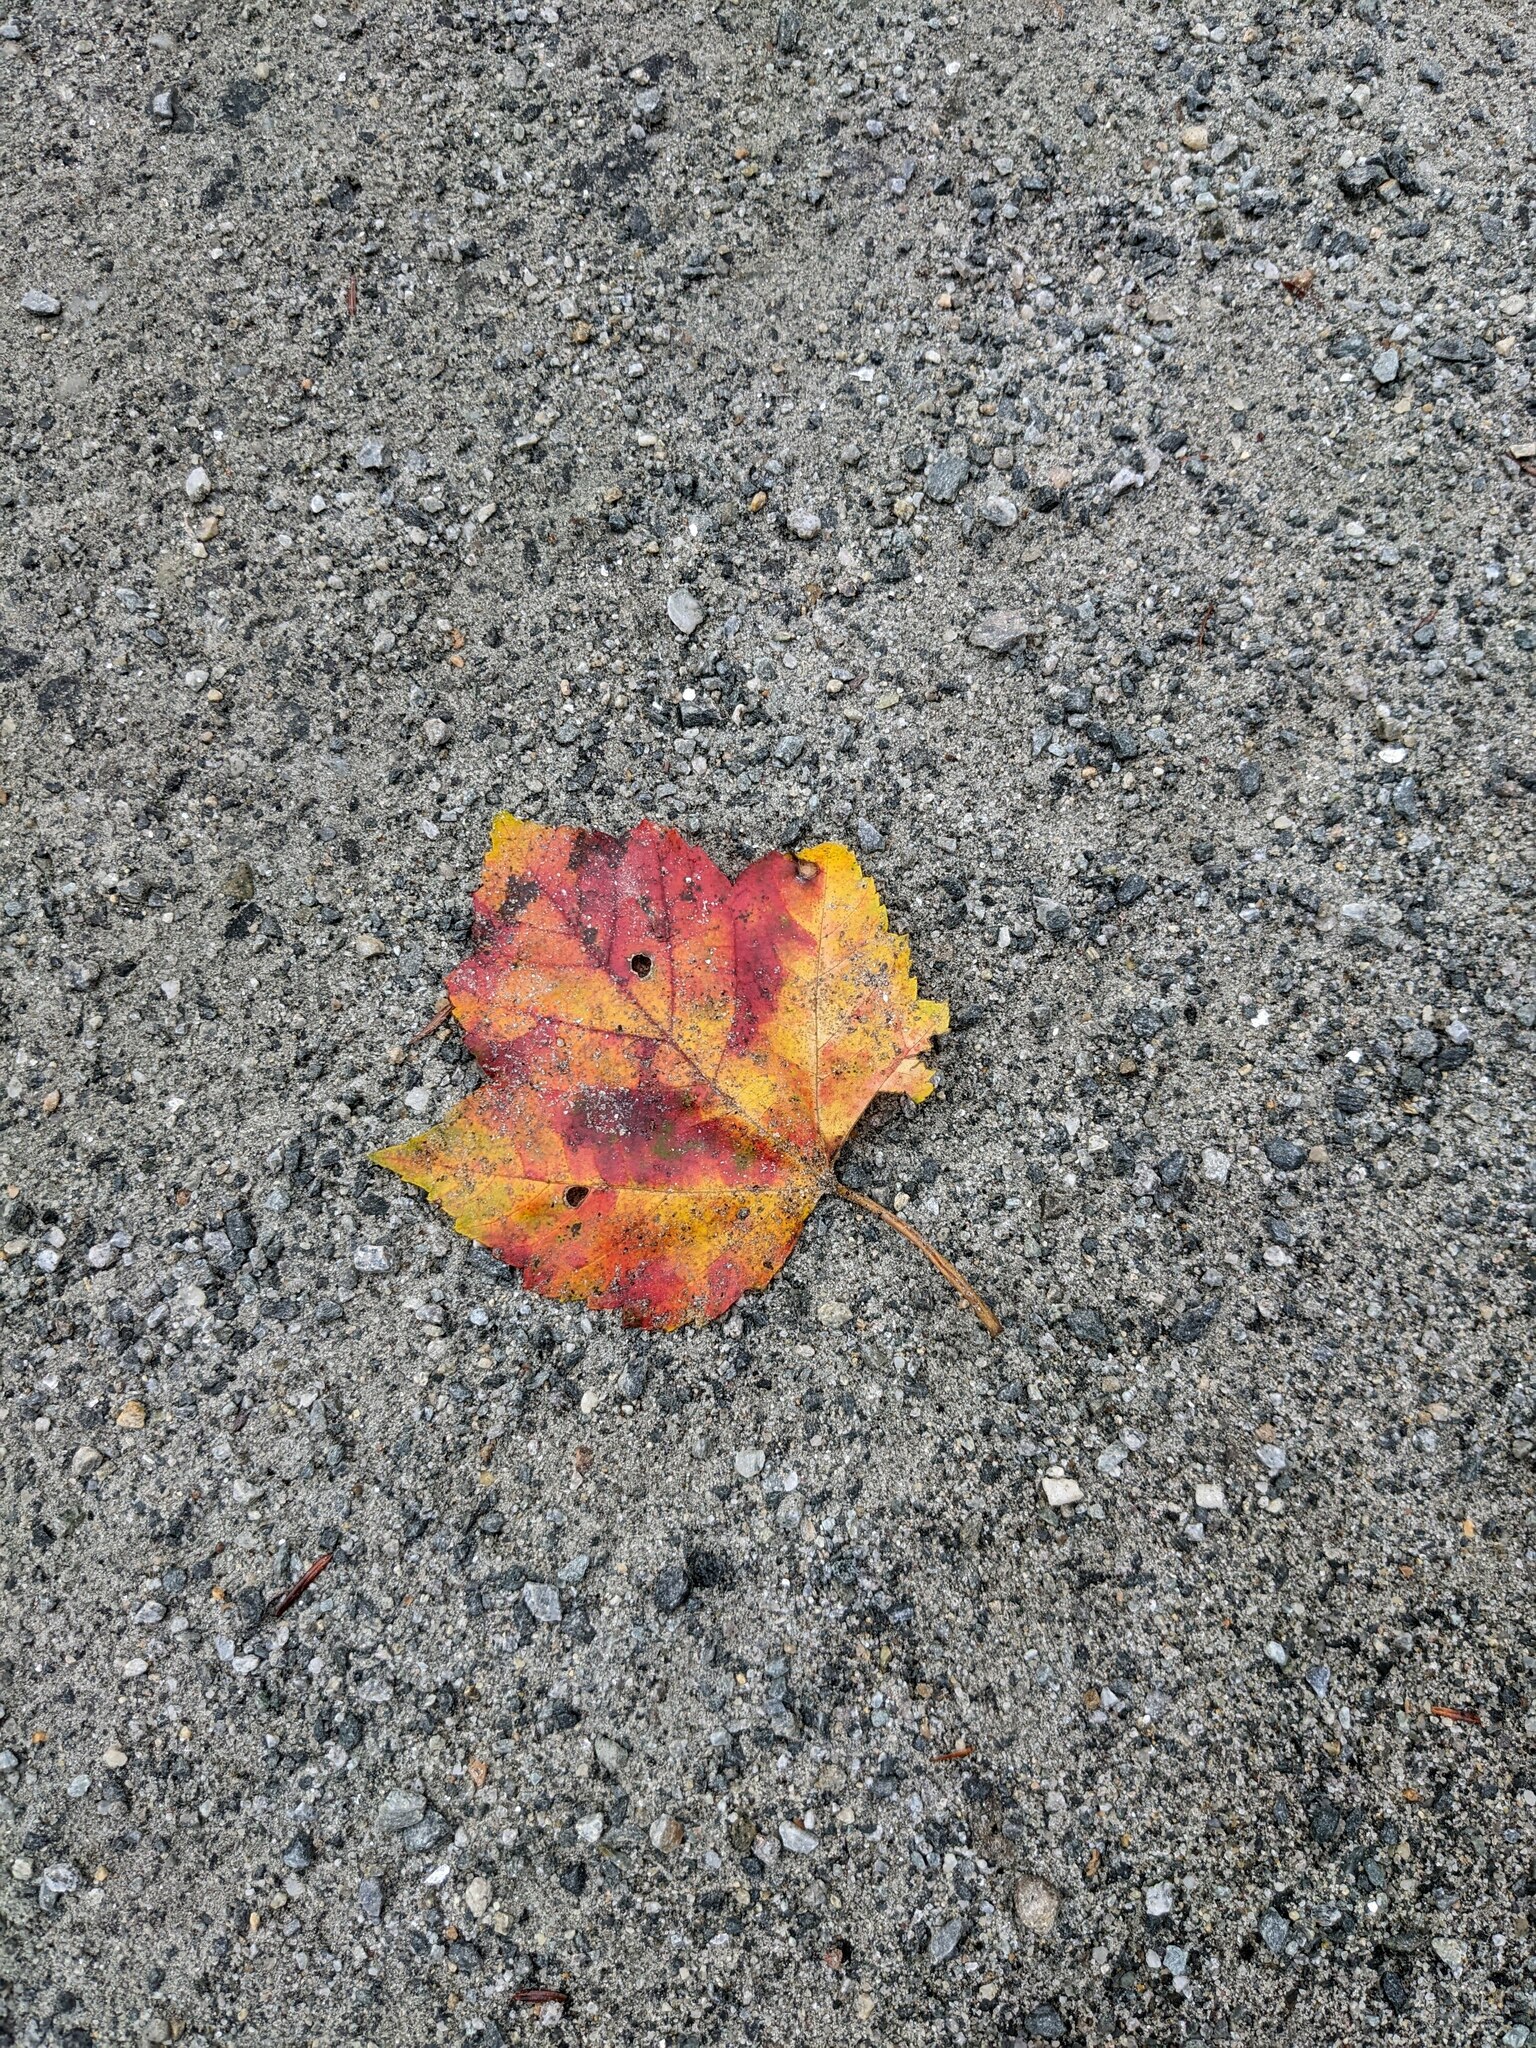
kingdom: Plantae
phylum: Tracheophyta
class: Magnoliopsida
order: Sapindales
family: Sapindaceae
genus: Acer
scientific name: Acer rubrum
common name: Red maple
